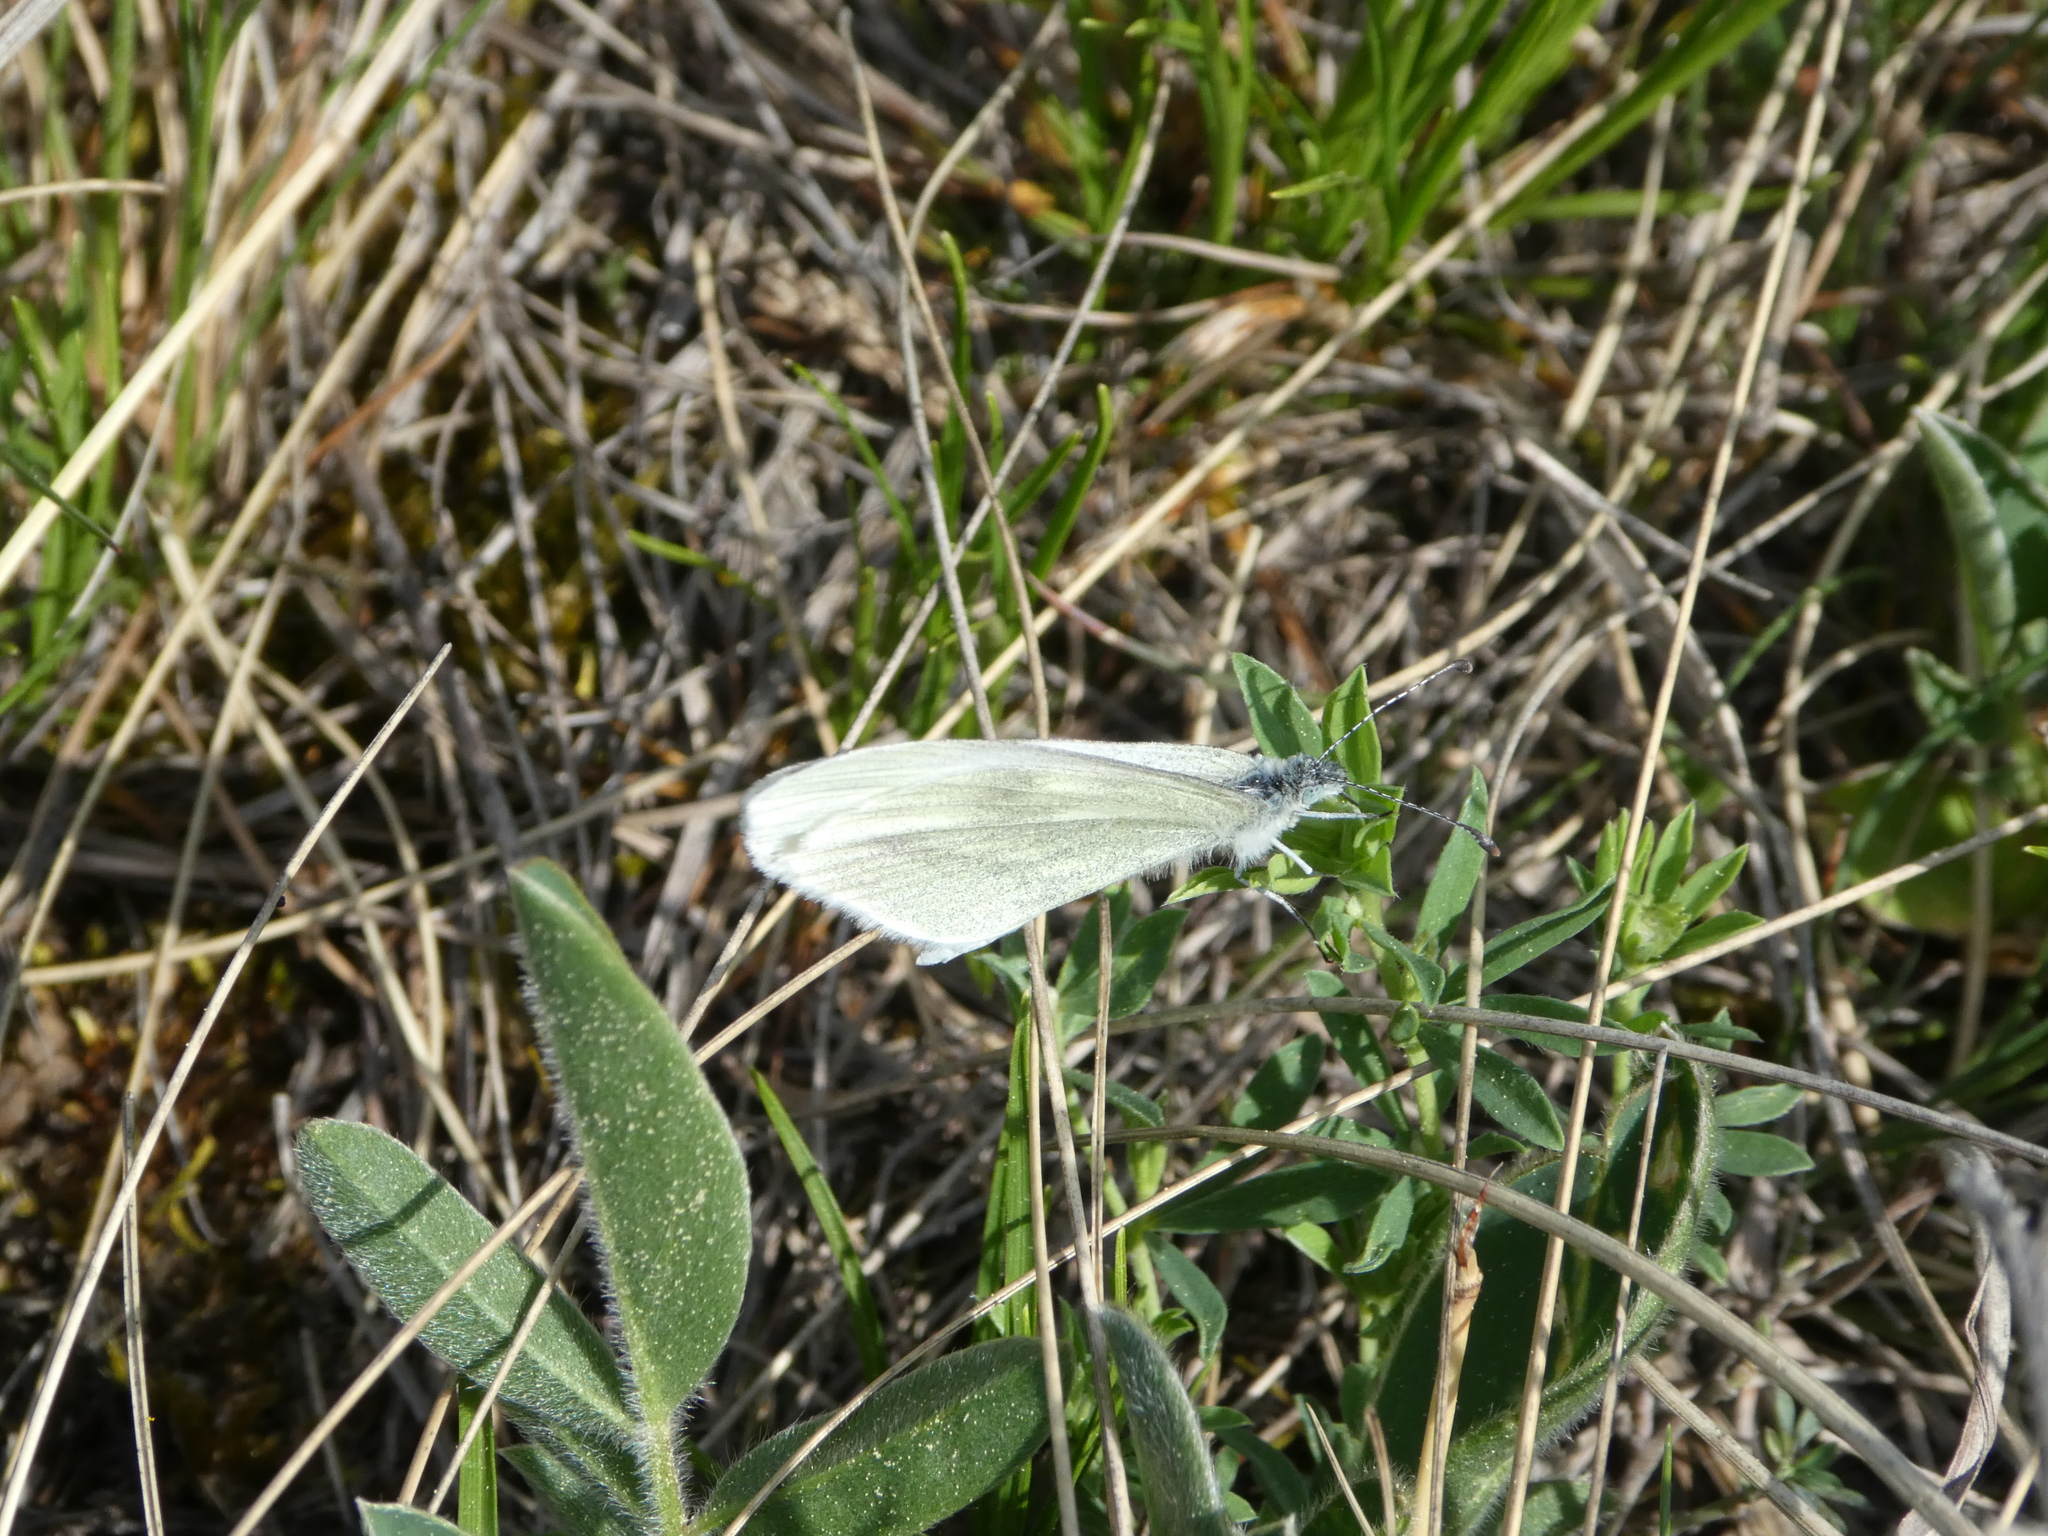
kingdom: Animalia
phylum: Arthropoda
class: Insecta
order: Lepidoptera
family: Pieridae
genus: Leptidea
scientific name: Leptidea
